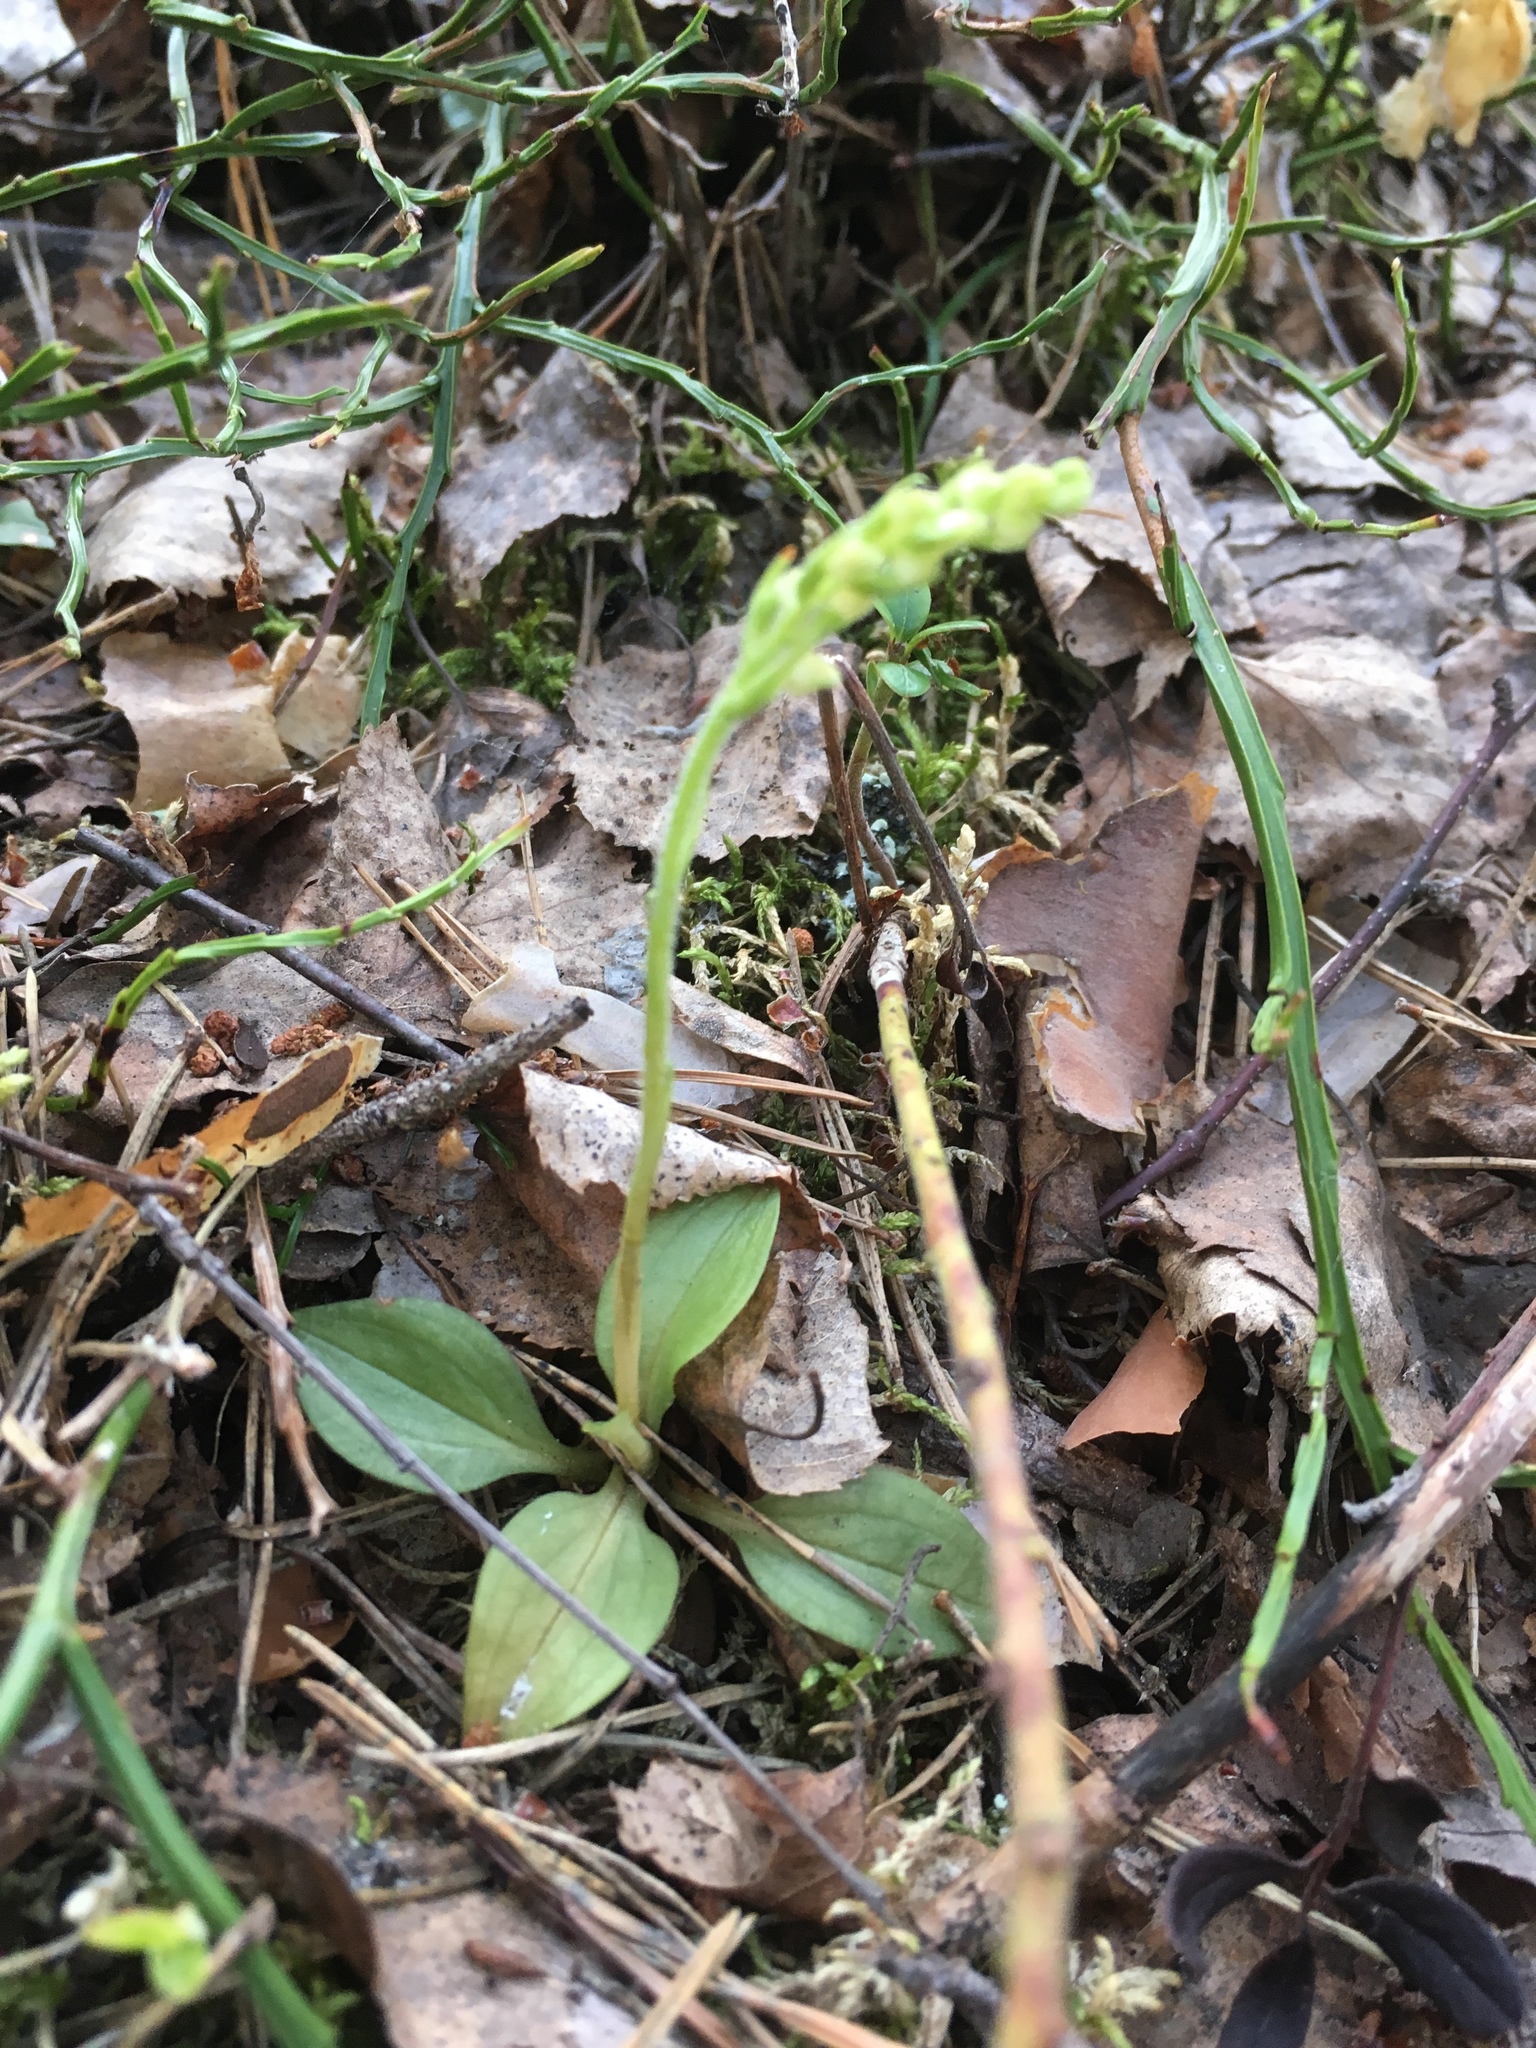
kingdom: Plantae
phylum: Tracheophyta
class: Liliopsida
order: Asparagales
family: Orchidaceae
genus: Goodyera
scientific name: Goodyera repens
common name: Creeping lady's-tresses
